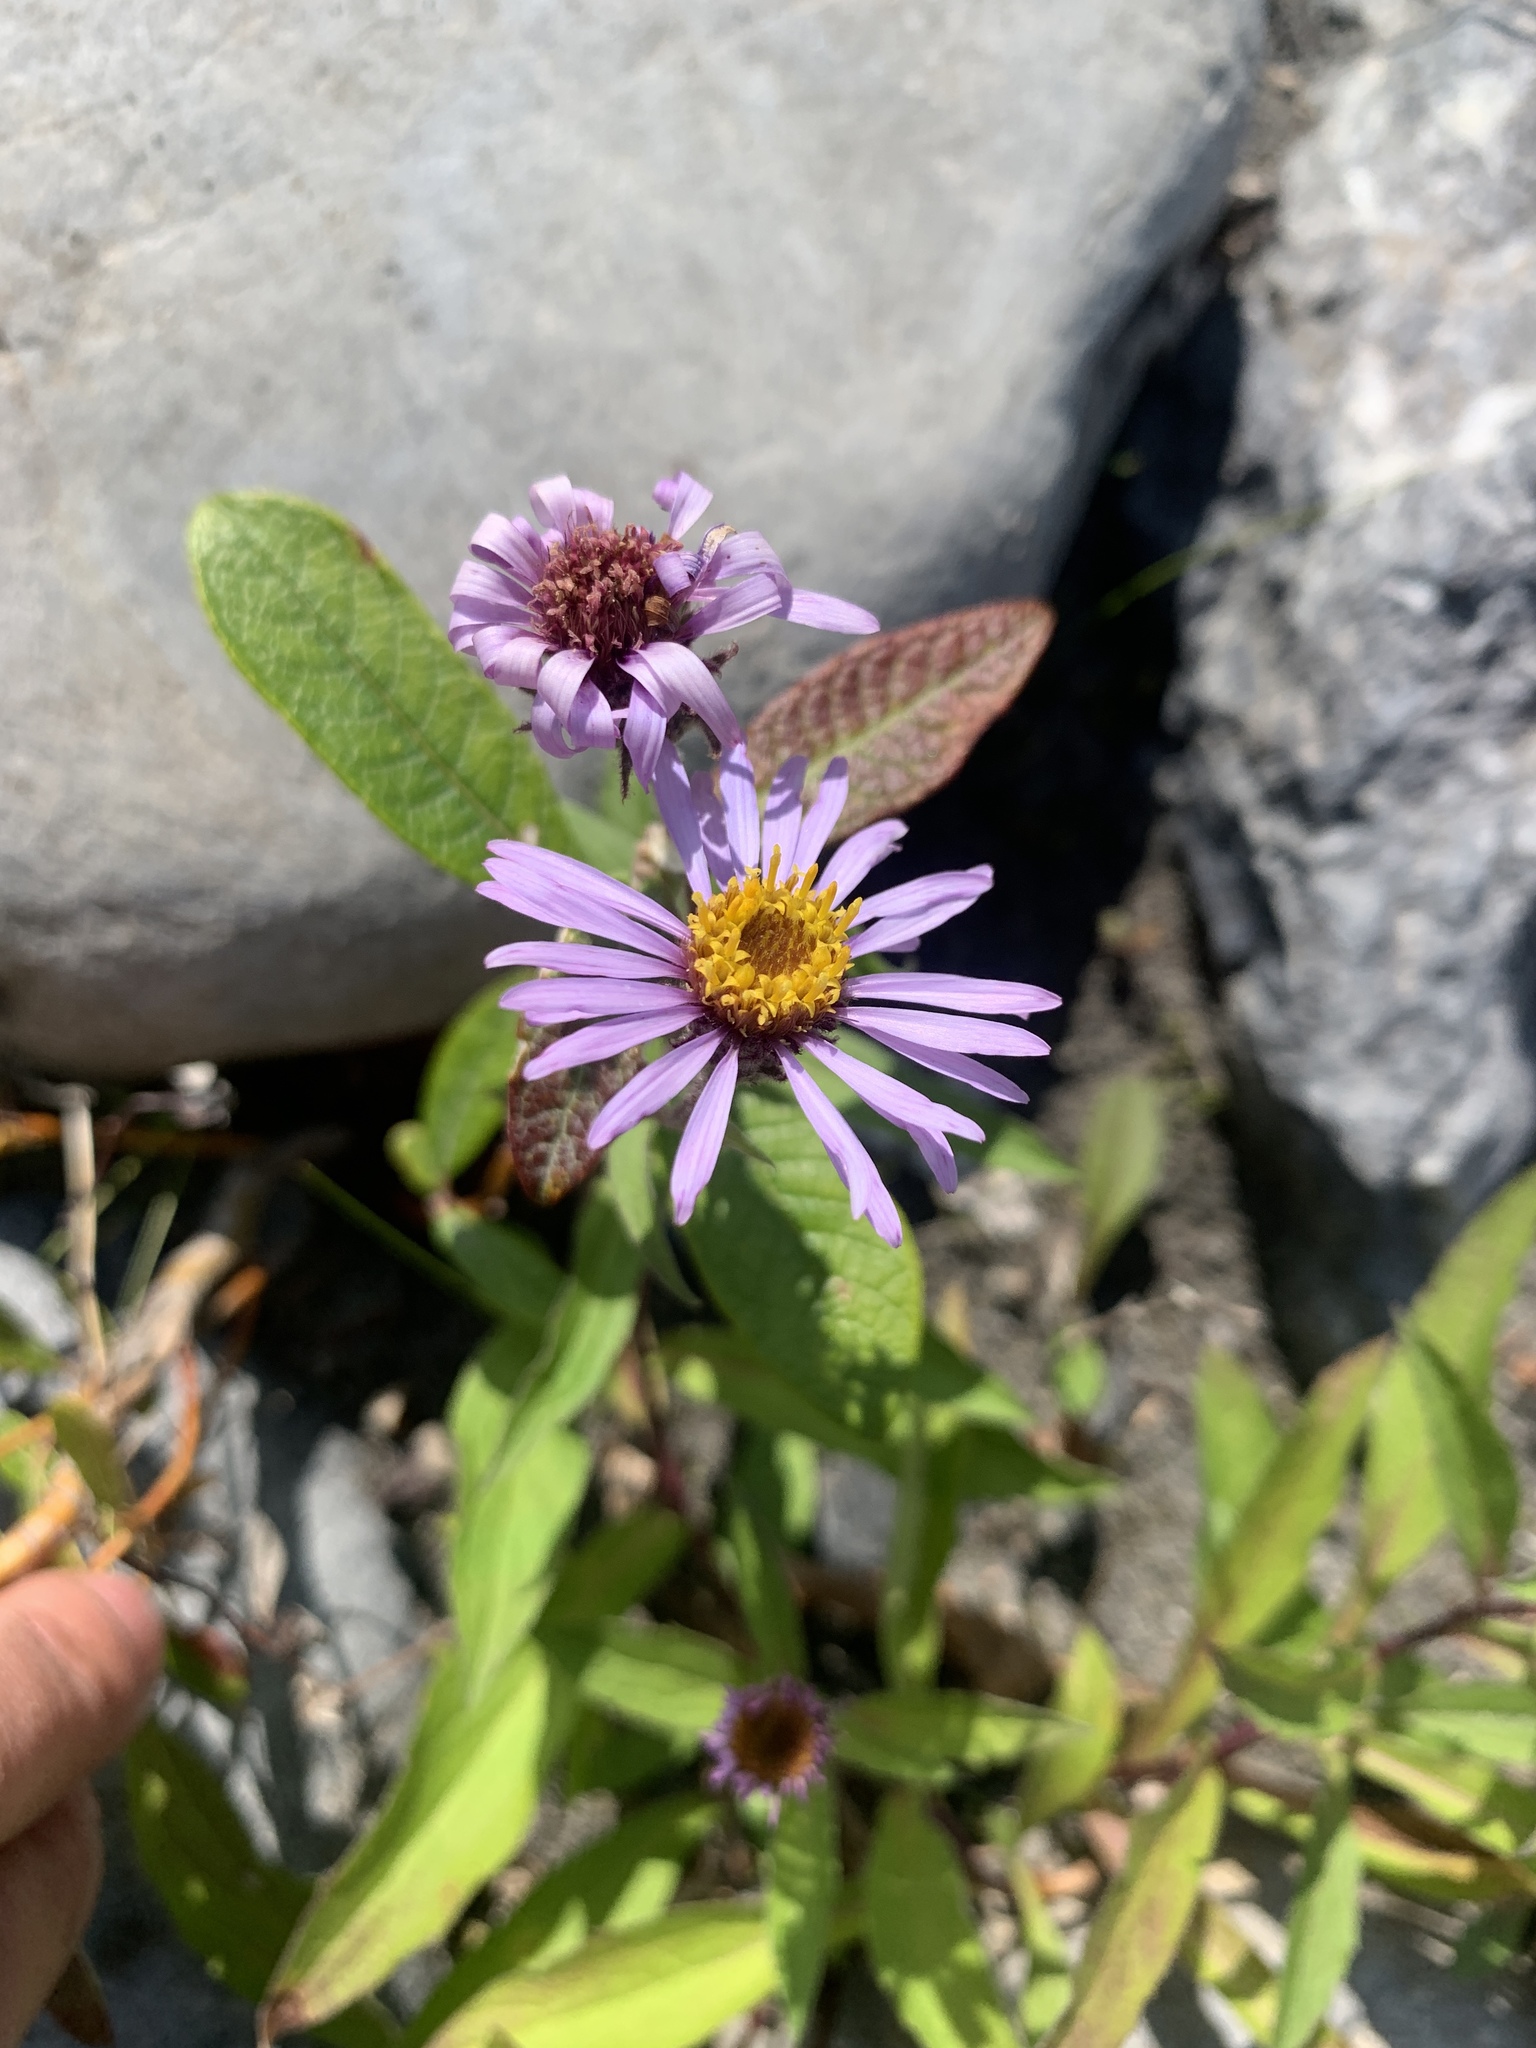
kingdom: Plantae
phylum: Tracheophyta
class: Magnoliopsida
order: Asterales
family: Asteraceae
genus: Eurybia
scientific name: Eurybia sibirica
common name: Arctic aster
